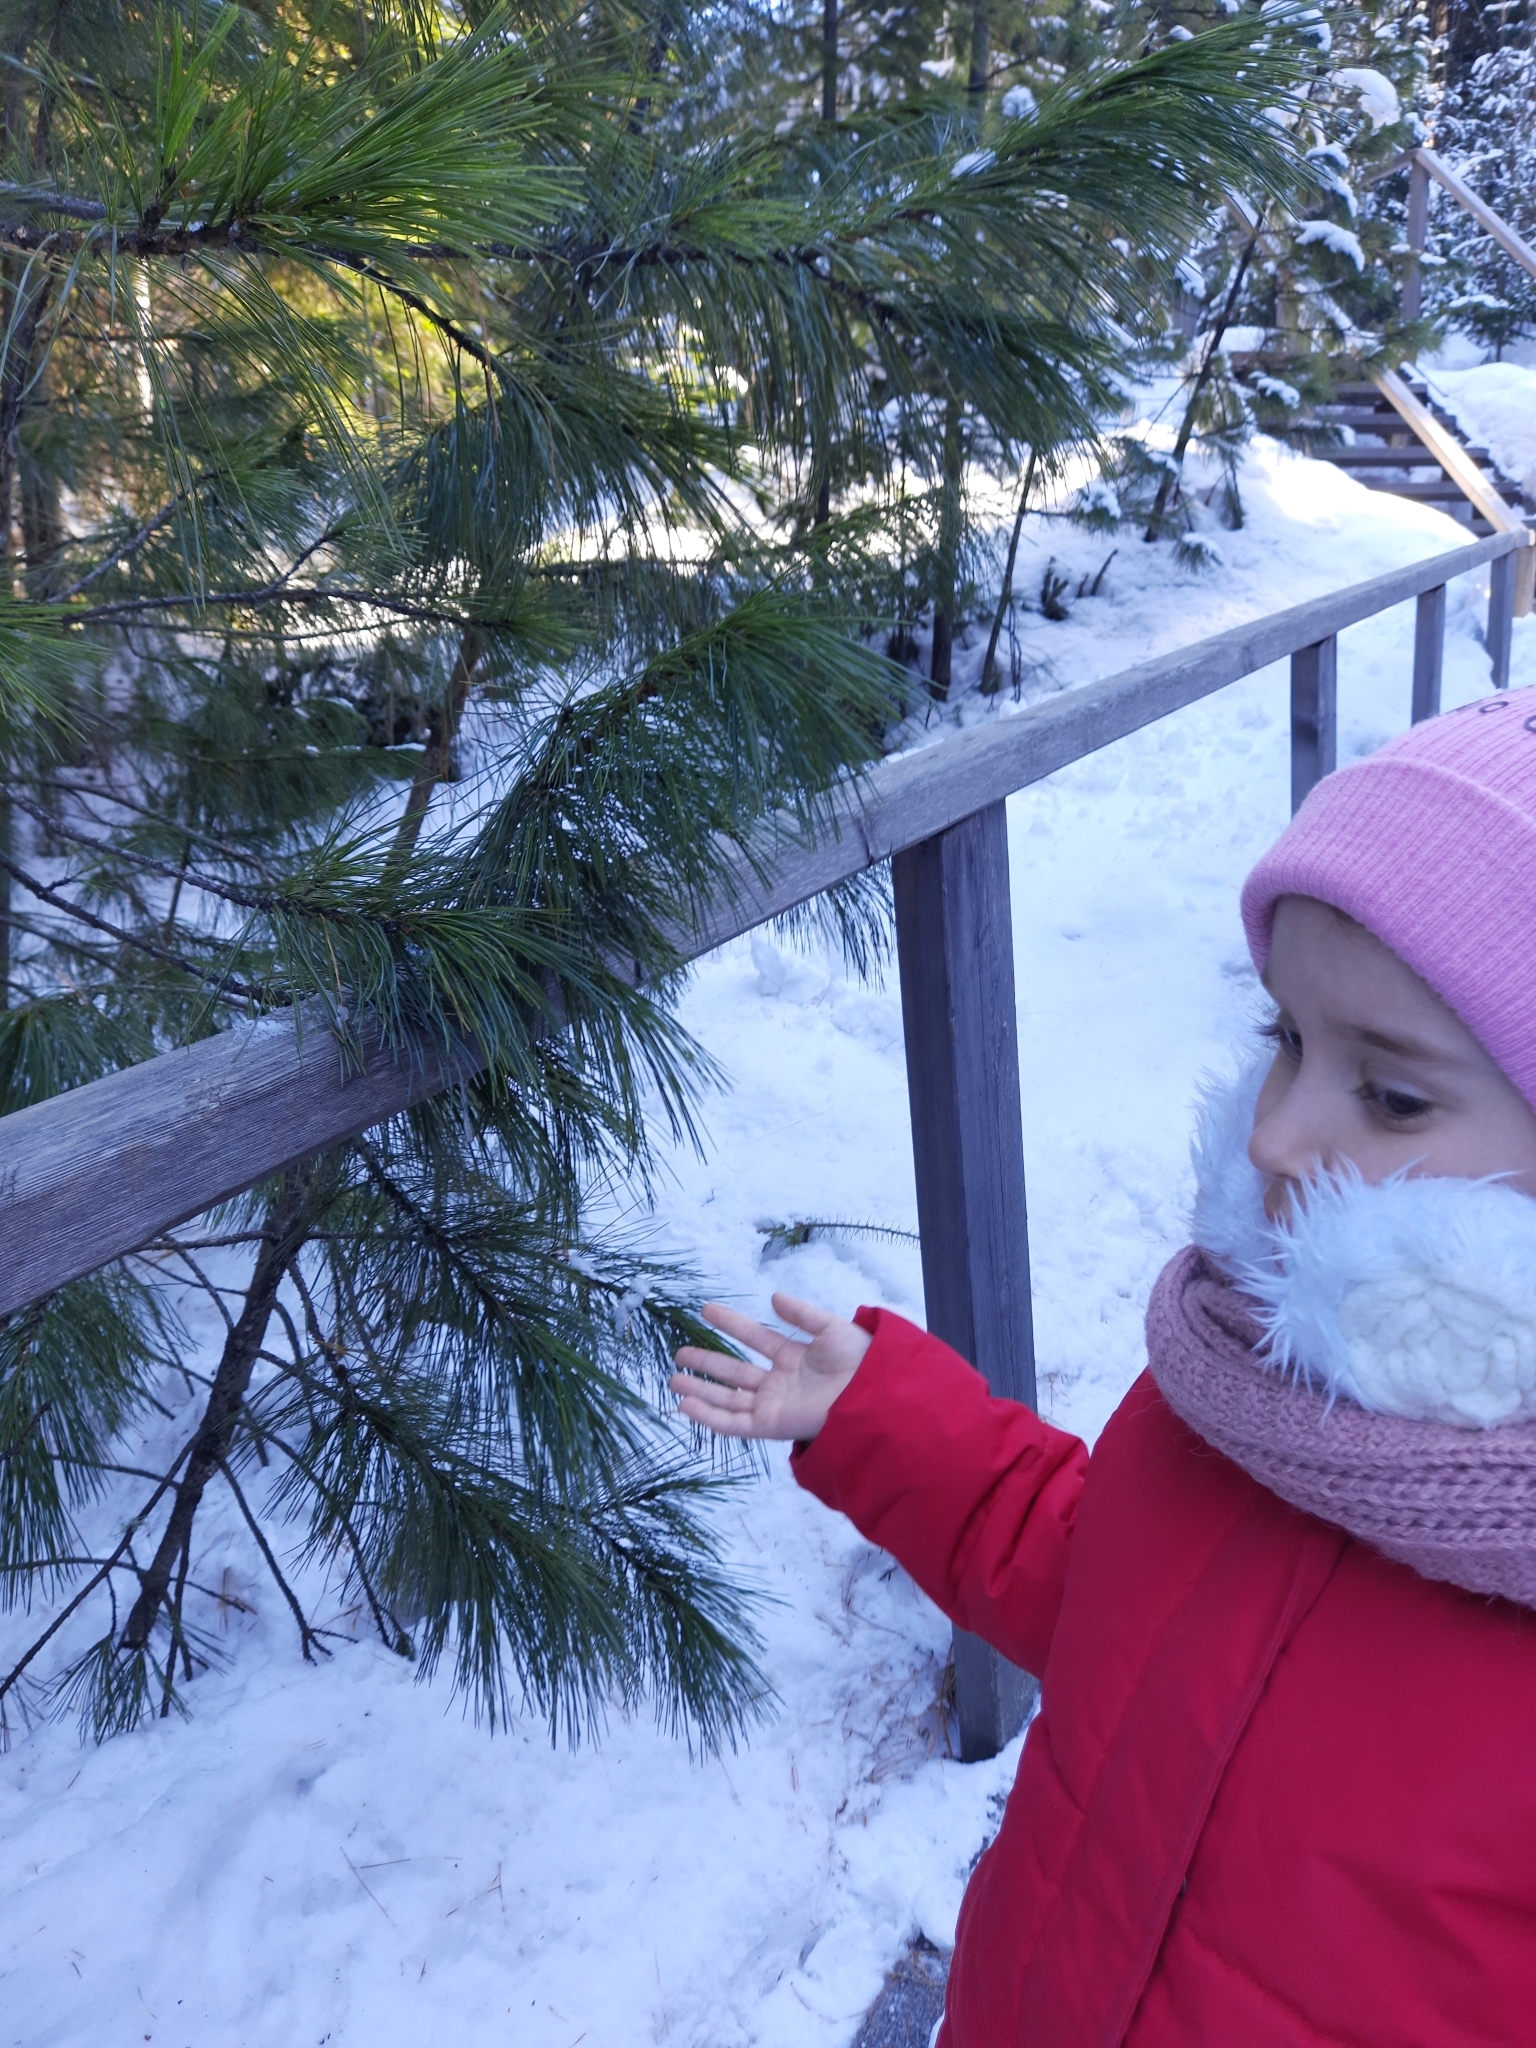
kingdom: Plantae
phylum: Tracheophyta
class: Pinopsida
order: Pinales
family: Pinaceae
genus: Pinus
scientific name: Pinus sibirica
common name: Siberian pine
